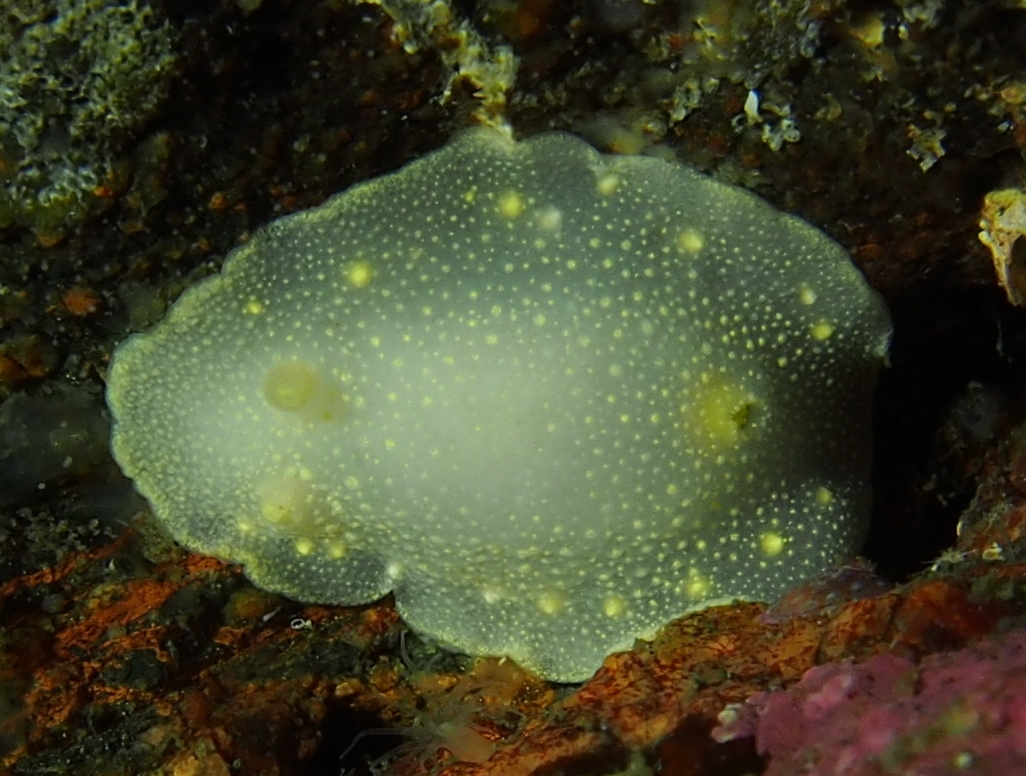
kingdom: Animalia
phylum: Mollusca
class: Gastropoda
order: Nudibranchia
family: Cadlinidae
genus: Cadlina
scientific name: Cadlina laevis
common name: White atlantic cadlina
